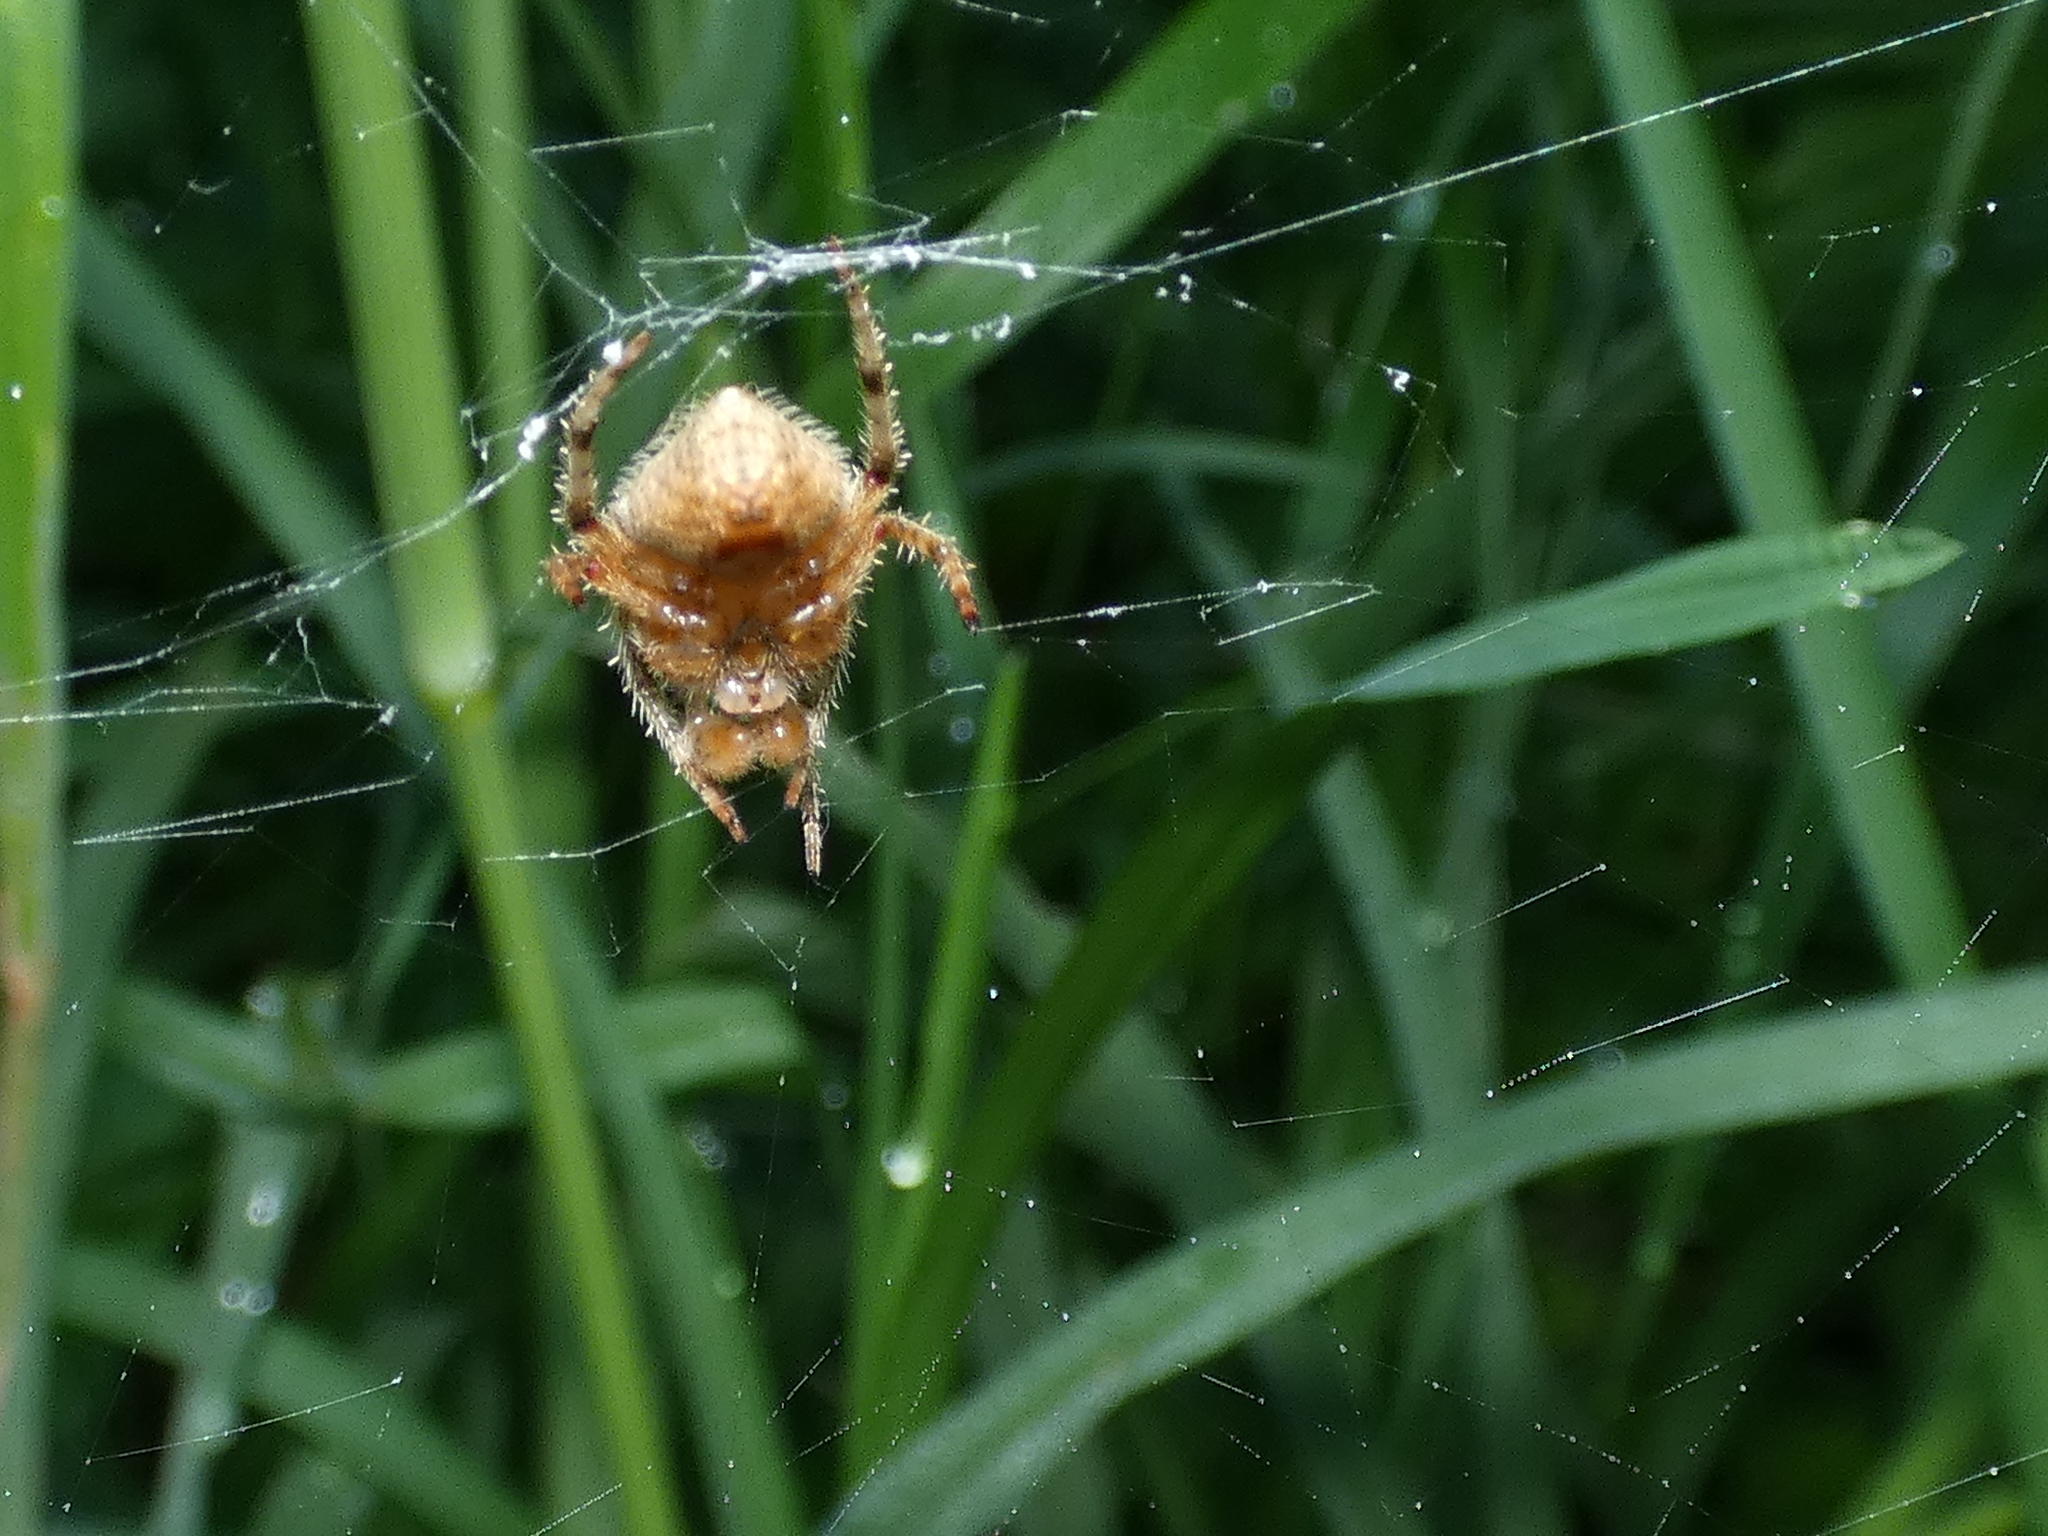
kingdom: Animalia
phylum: Arthropoda
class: Arachnida
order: Araneae
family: Araneidae
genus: Eriophora
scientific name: Eriophora edax
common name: Orb weavers
